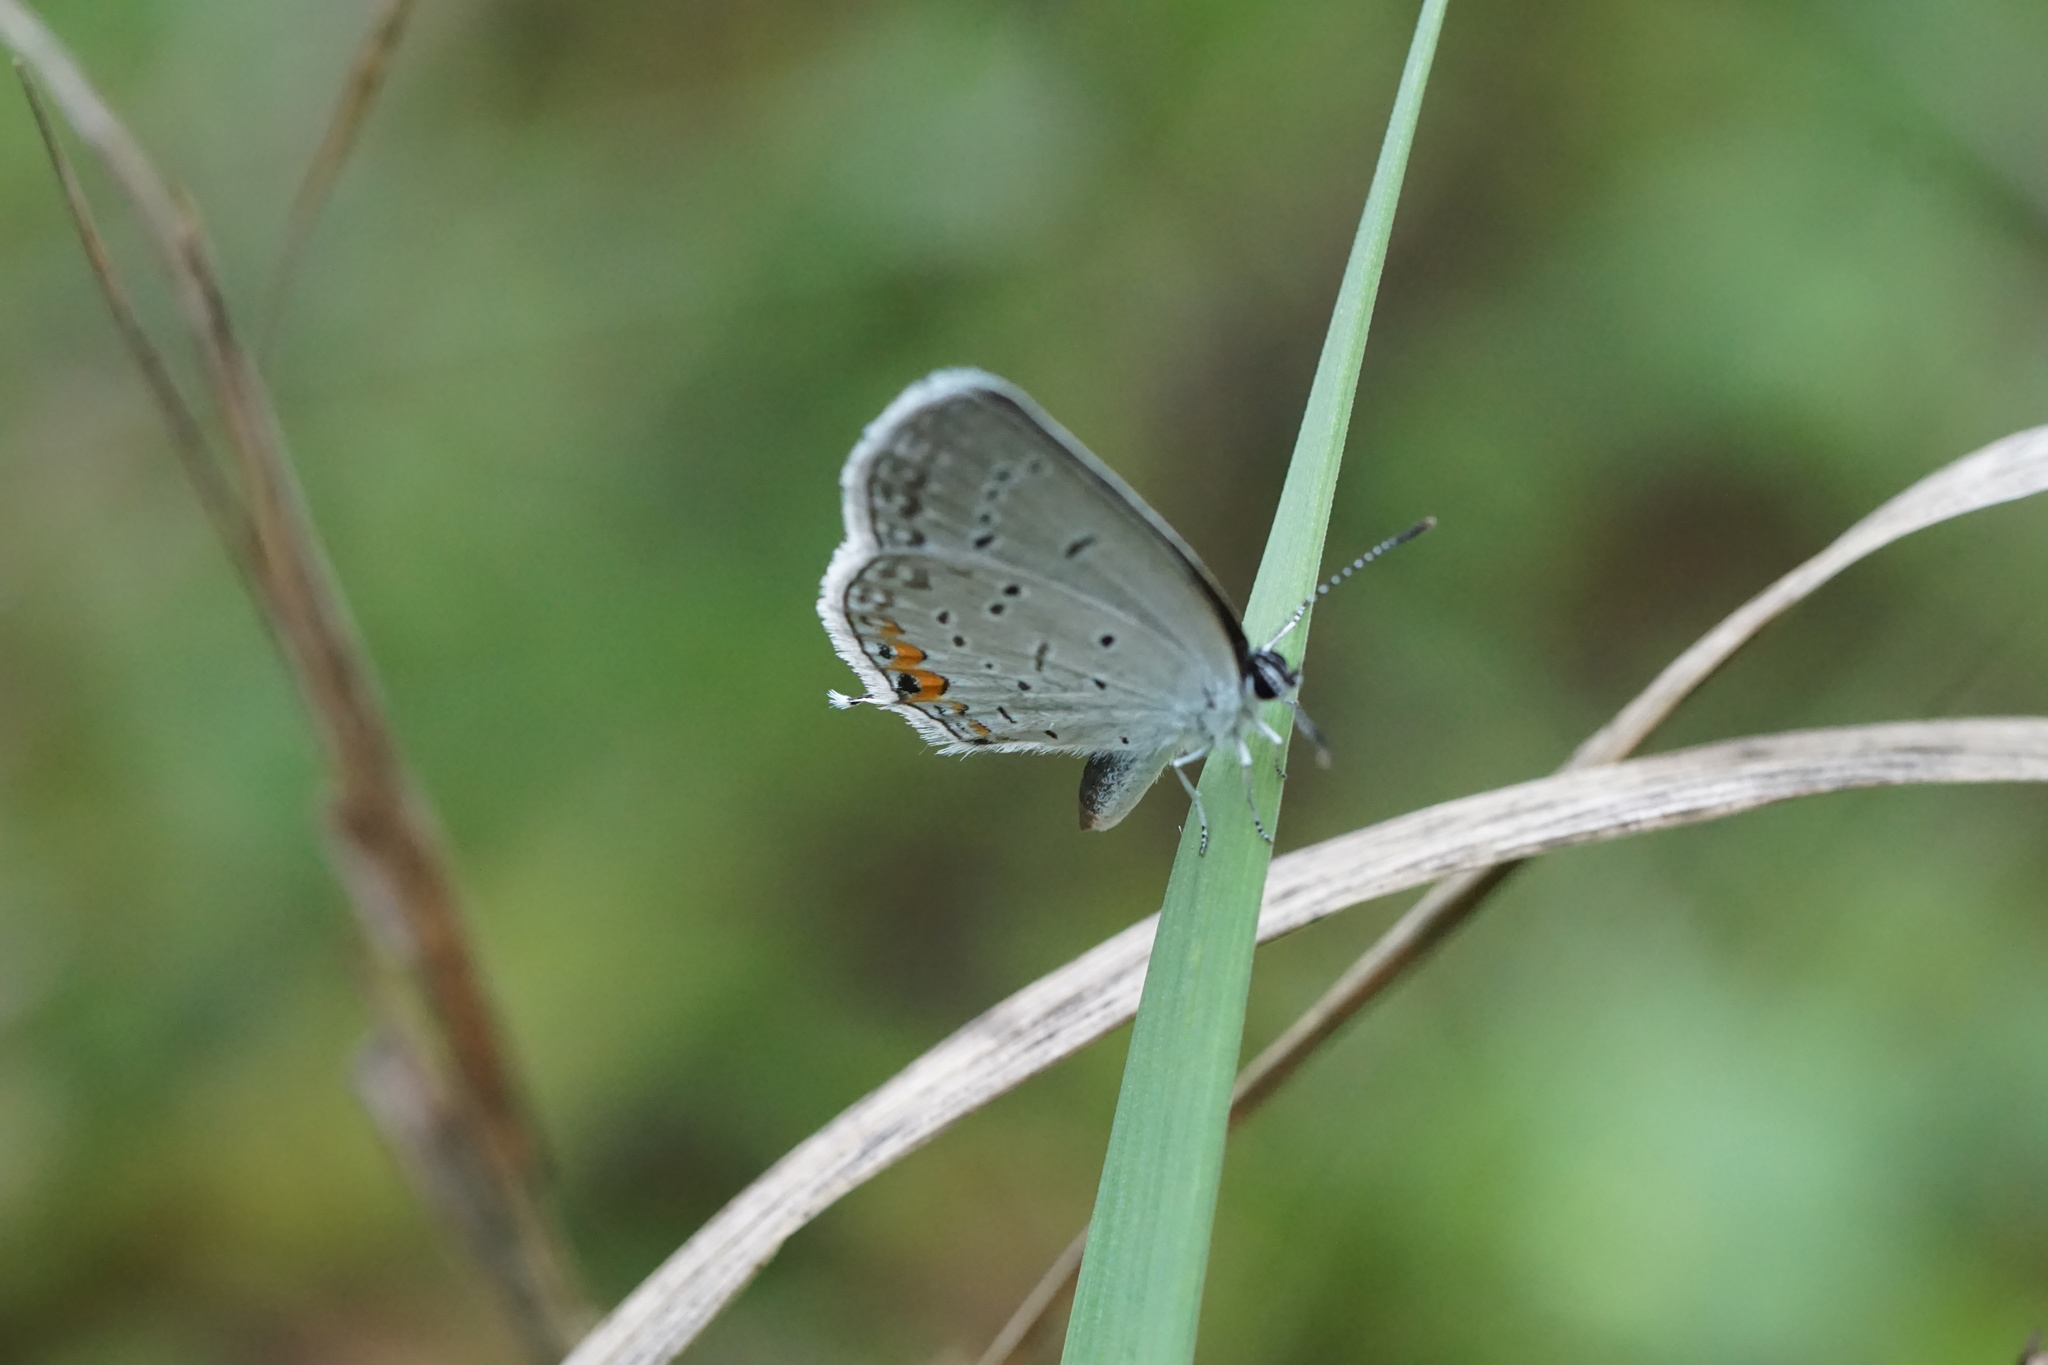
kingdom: Animalia
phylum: Arthropoda
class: Insecta
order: Lepidoptera
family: Lycaenidae
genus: Elkalyce
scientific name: Elkalyce comyntas
